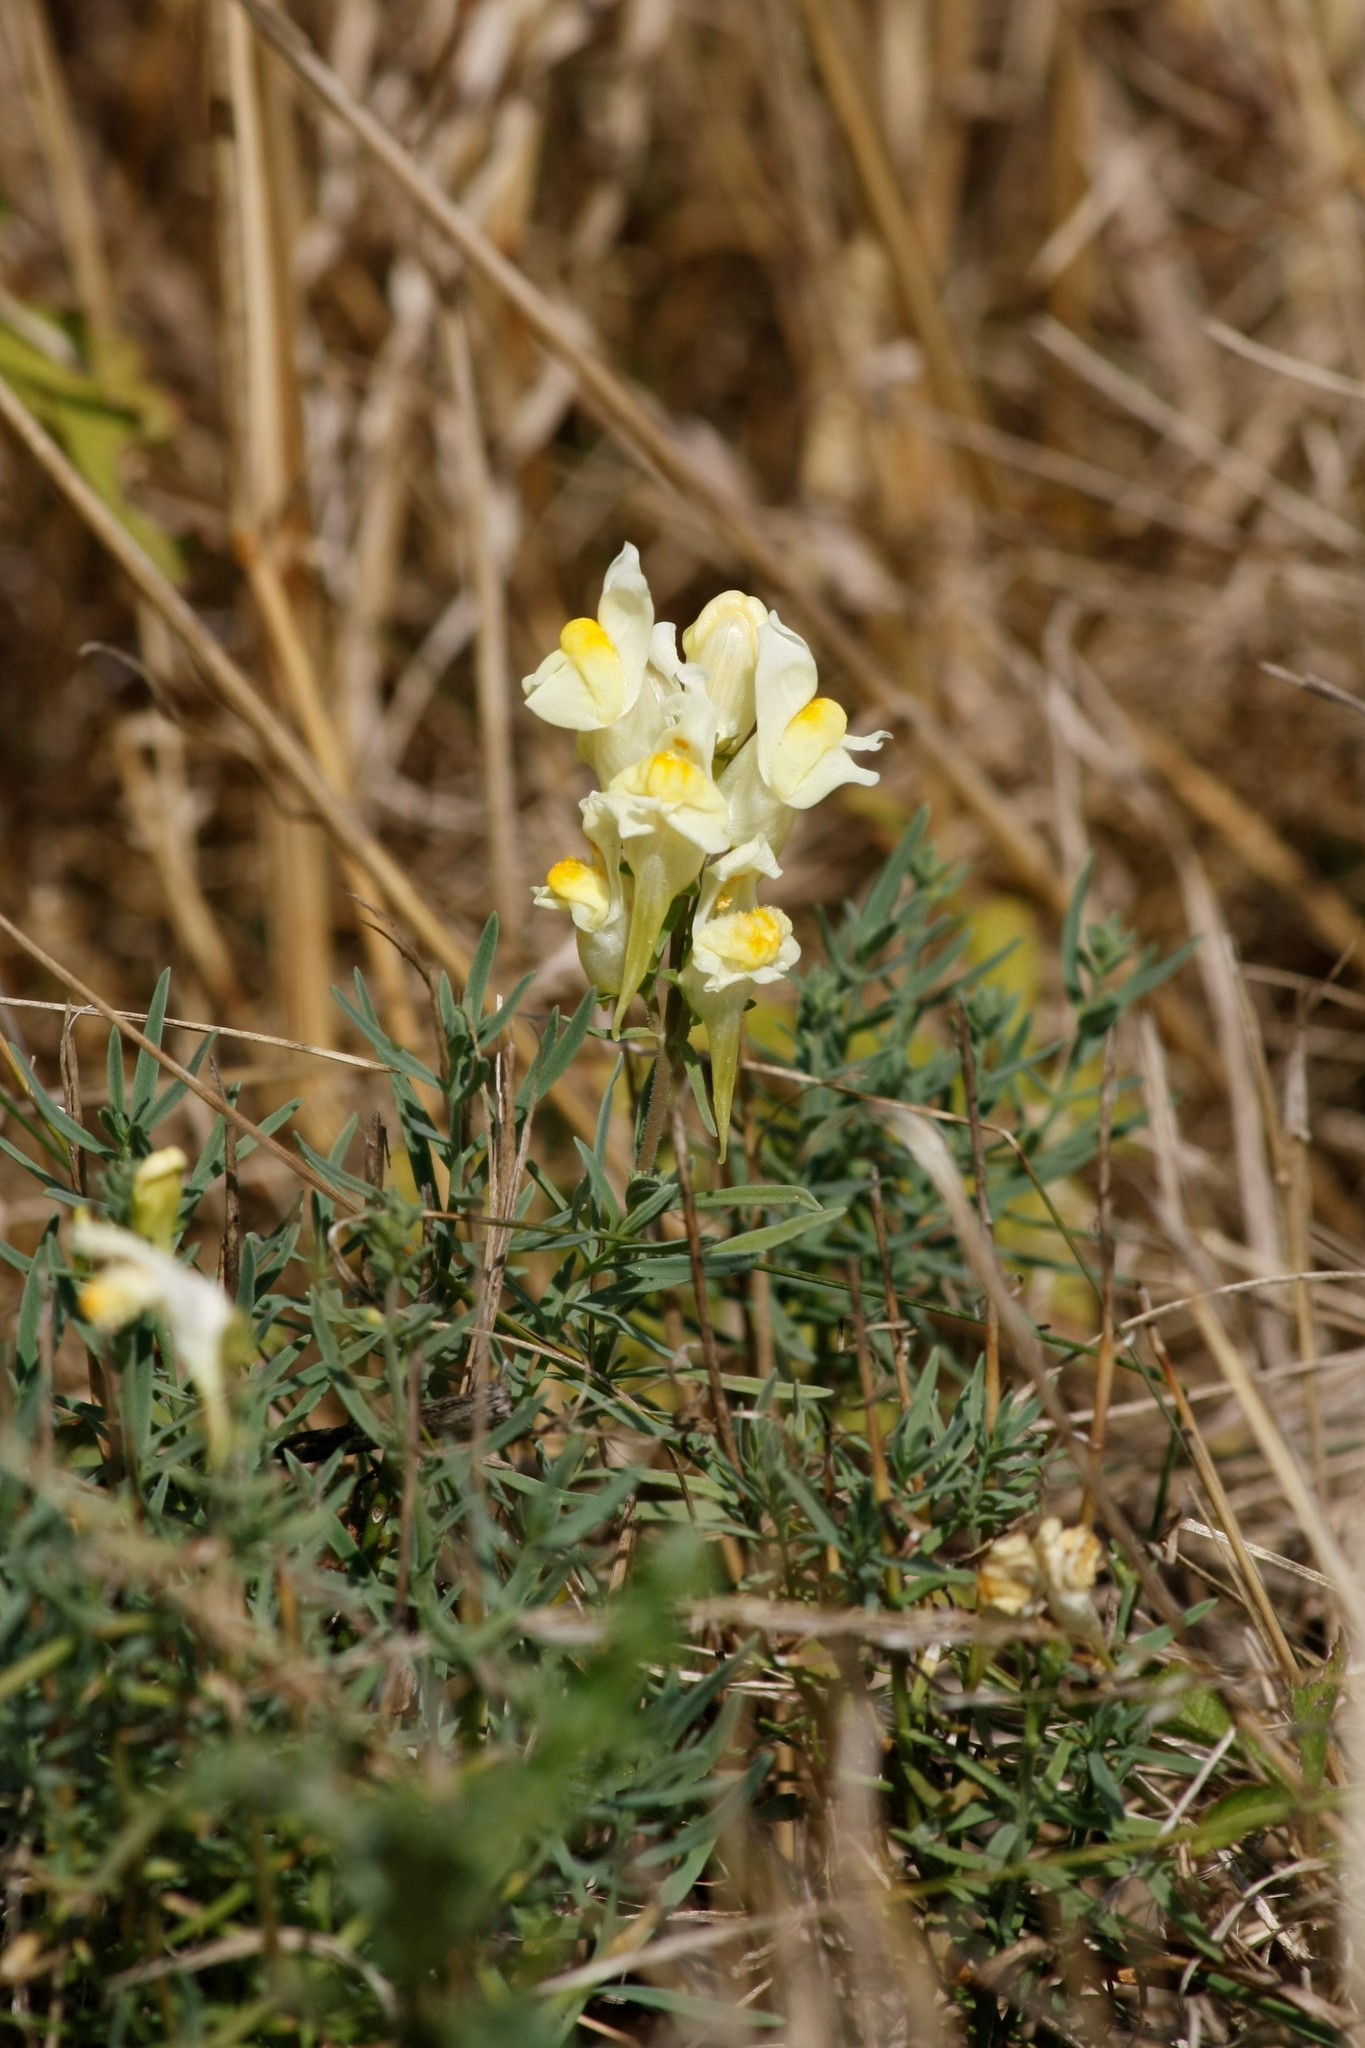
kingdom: Plantae
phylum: Tracheophyta
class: Magnoliopsida
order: Lamiales
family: Plantaginaceae
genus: Linaria
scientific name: Linaria vulgaris
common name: Butter and eggs
